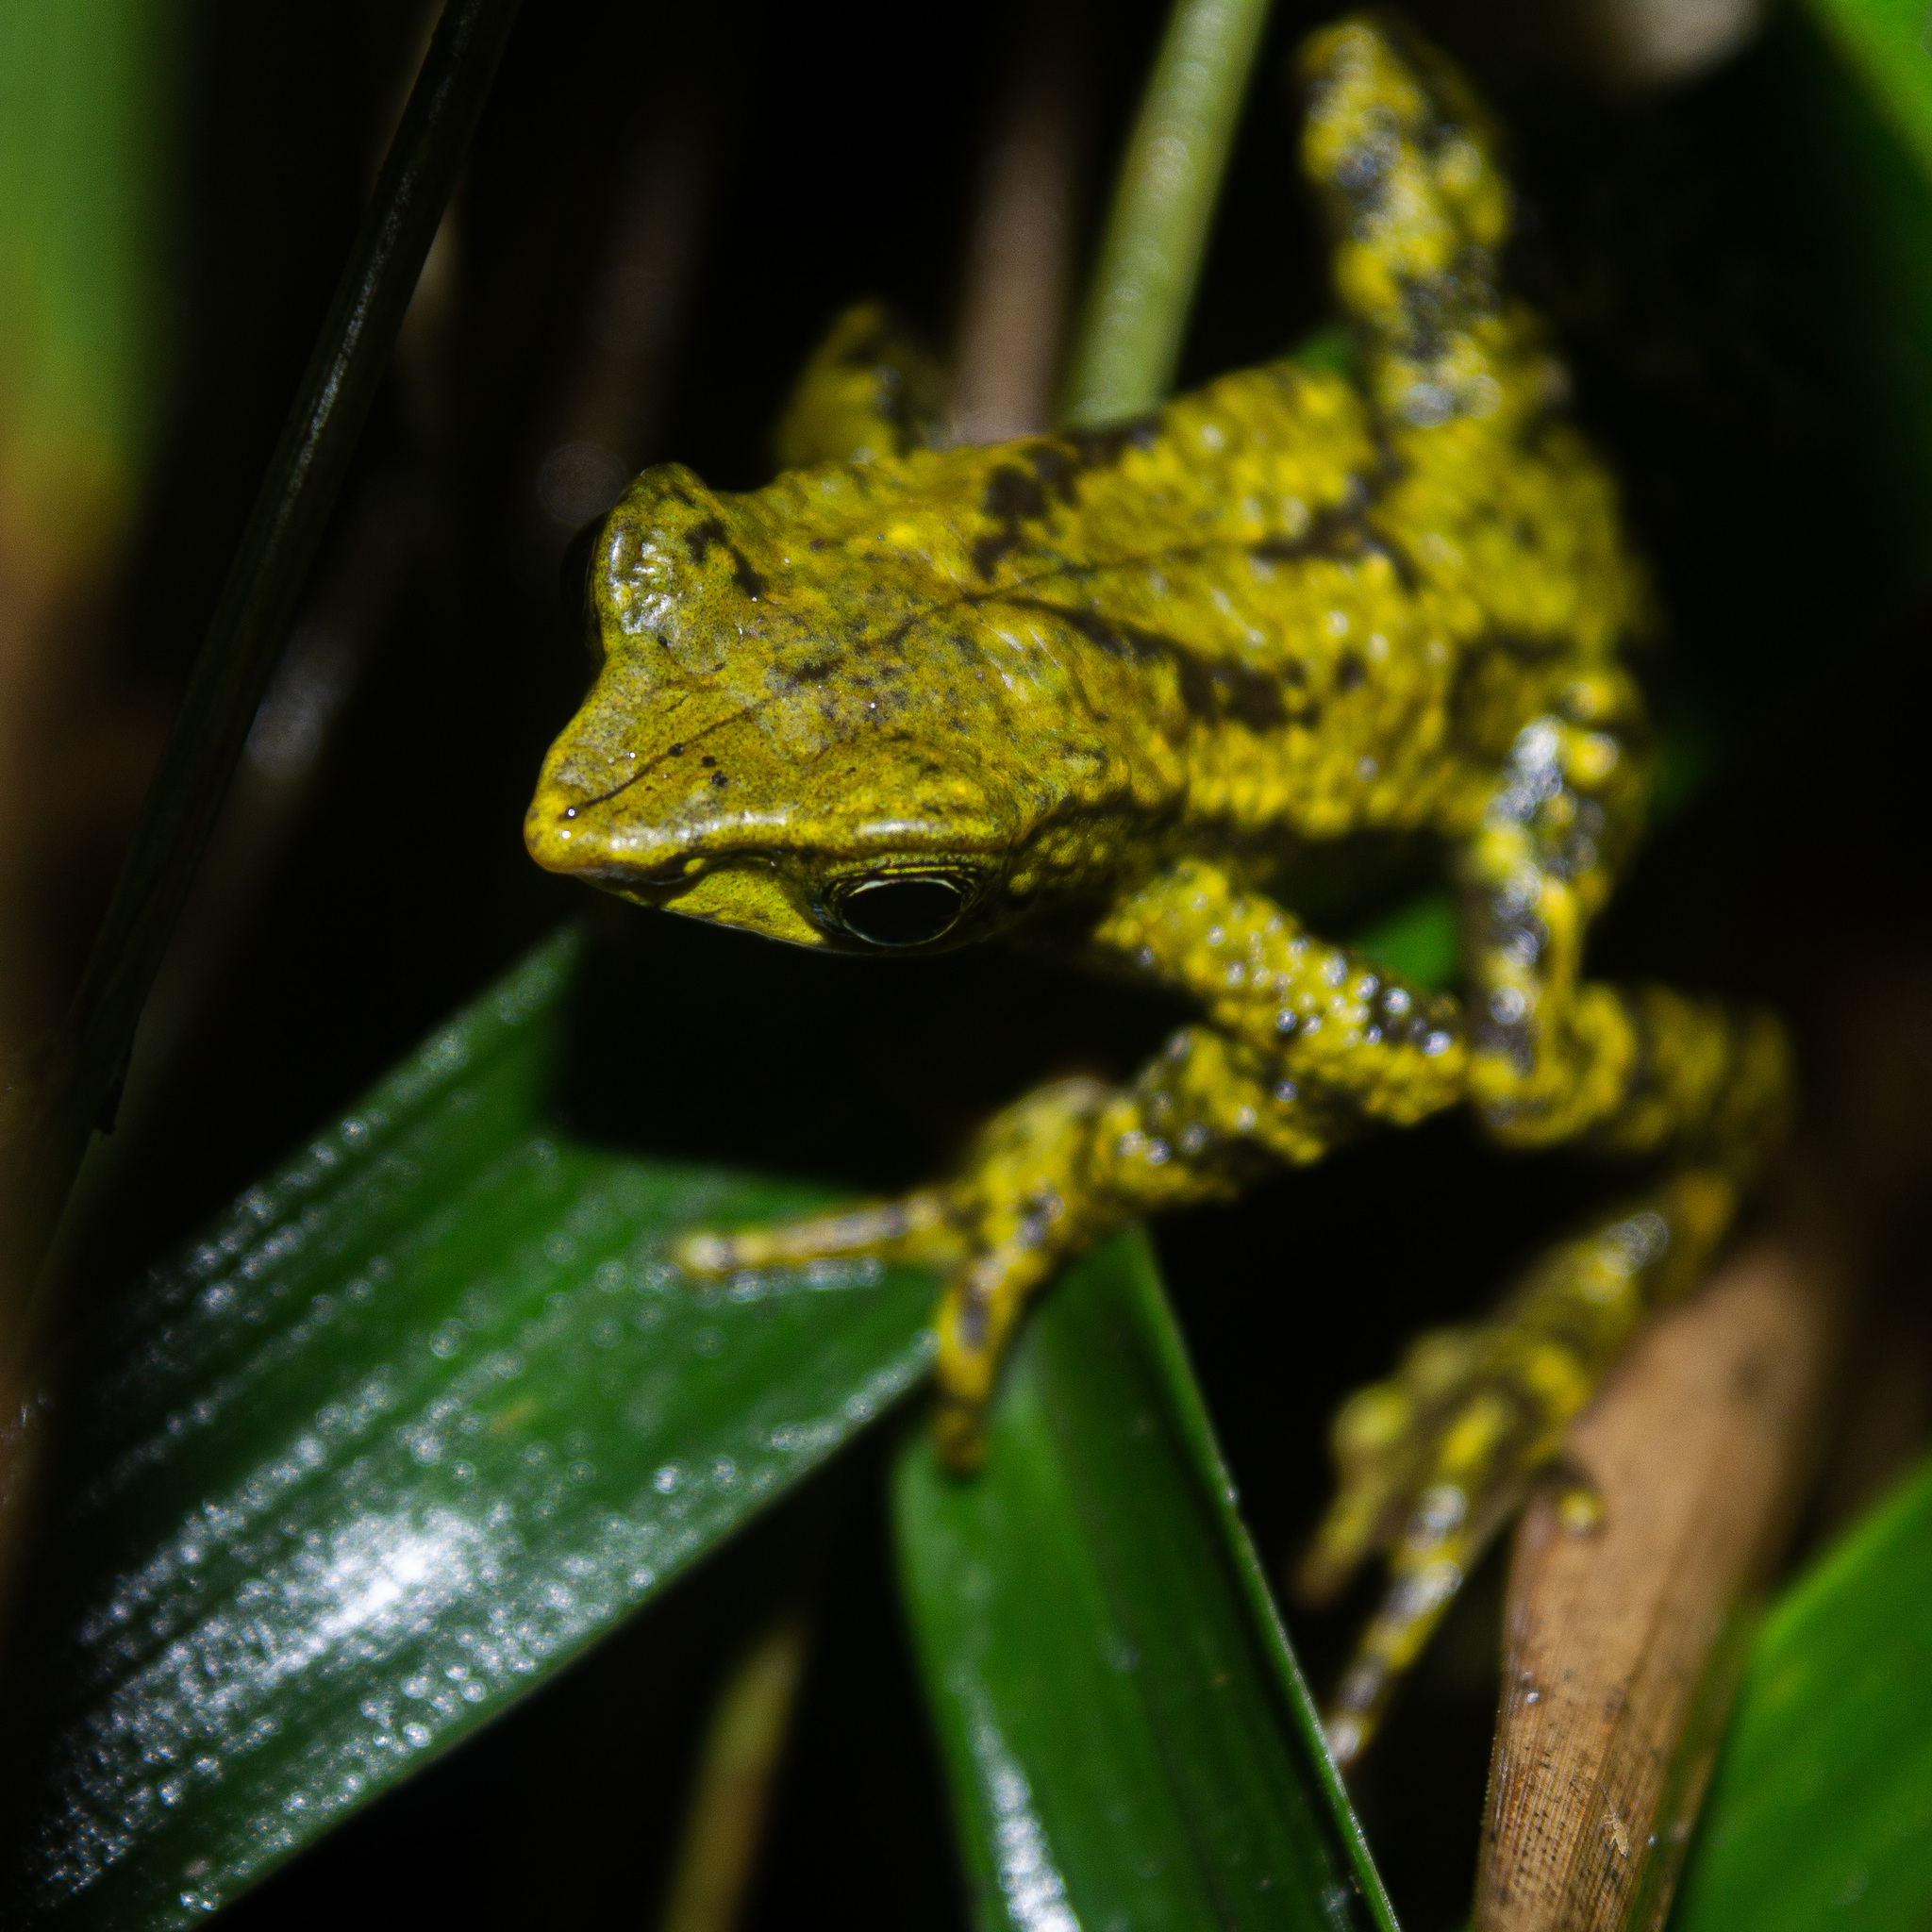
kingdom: Animalia
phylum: Chordata
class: Amphibia
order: Anura
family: Bufonidae
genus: Atelopus
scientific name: Atelopus laetissimus
